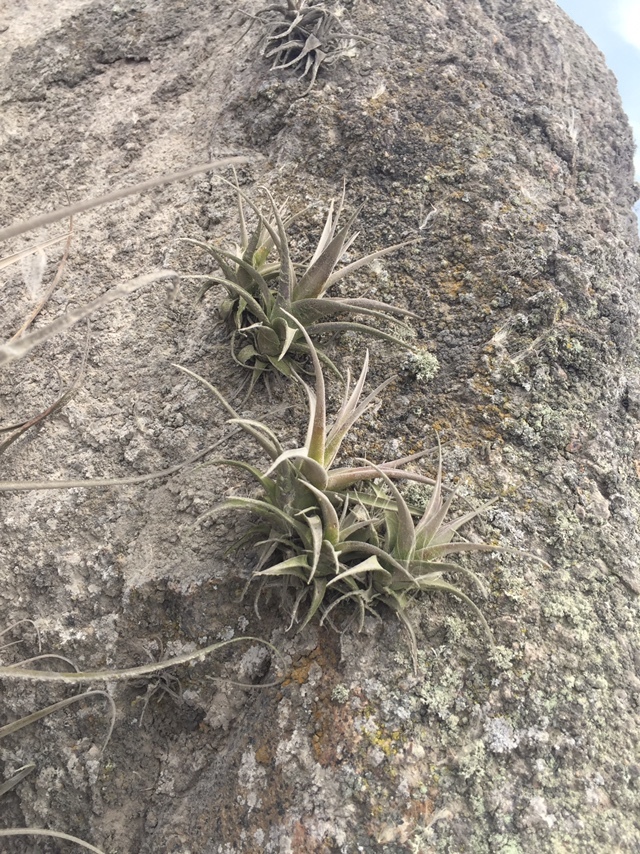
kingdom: Plantae
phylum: Tracheophyta
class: Liliopsida
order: Poales
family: Bromeliaceae
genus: Tillandsia
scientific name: Tillandsia latifolia
